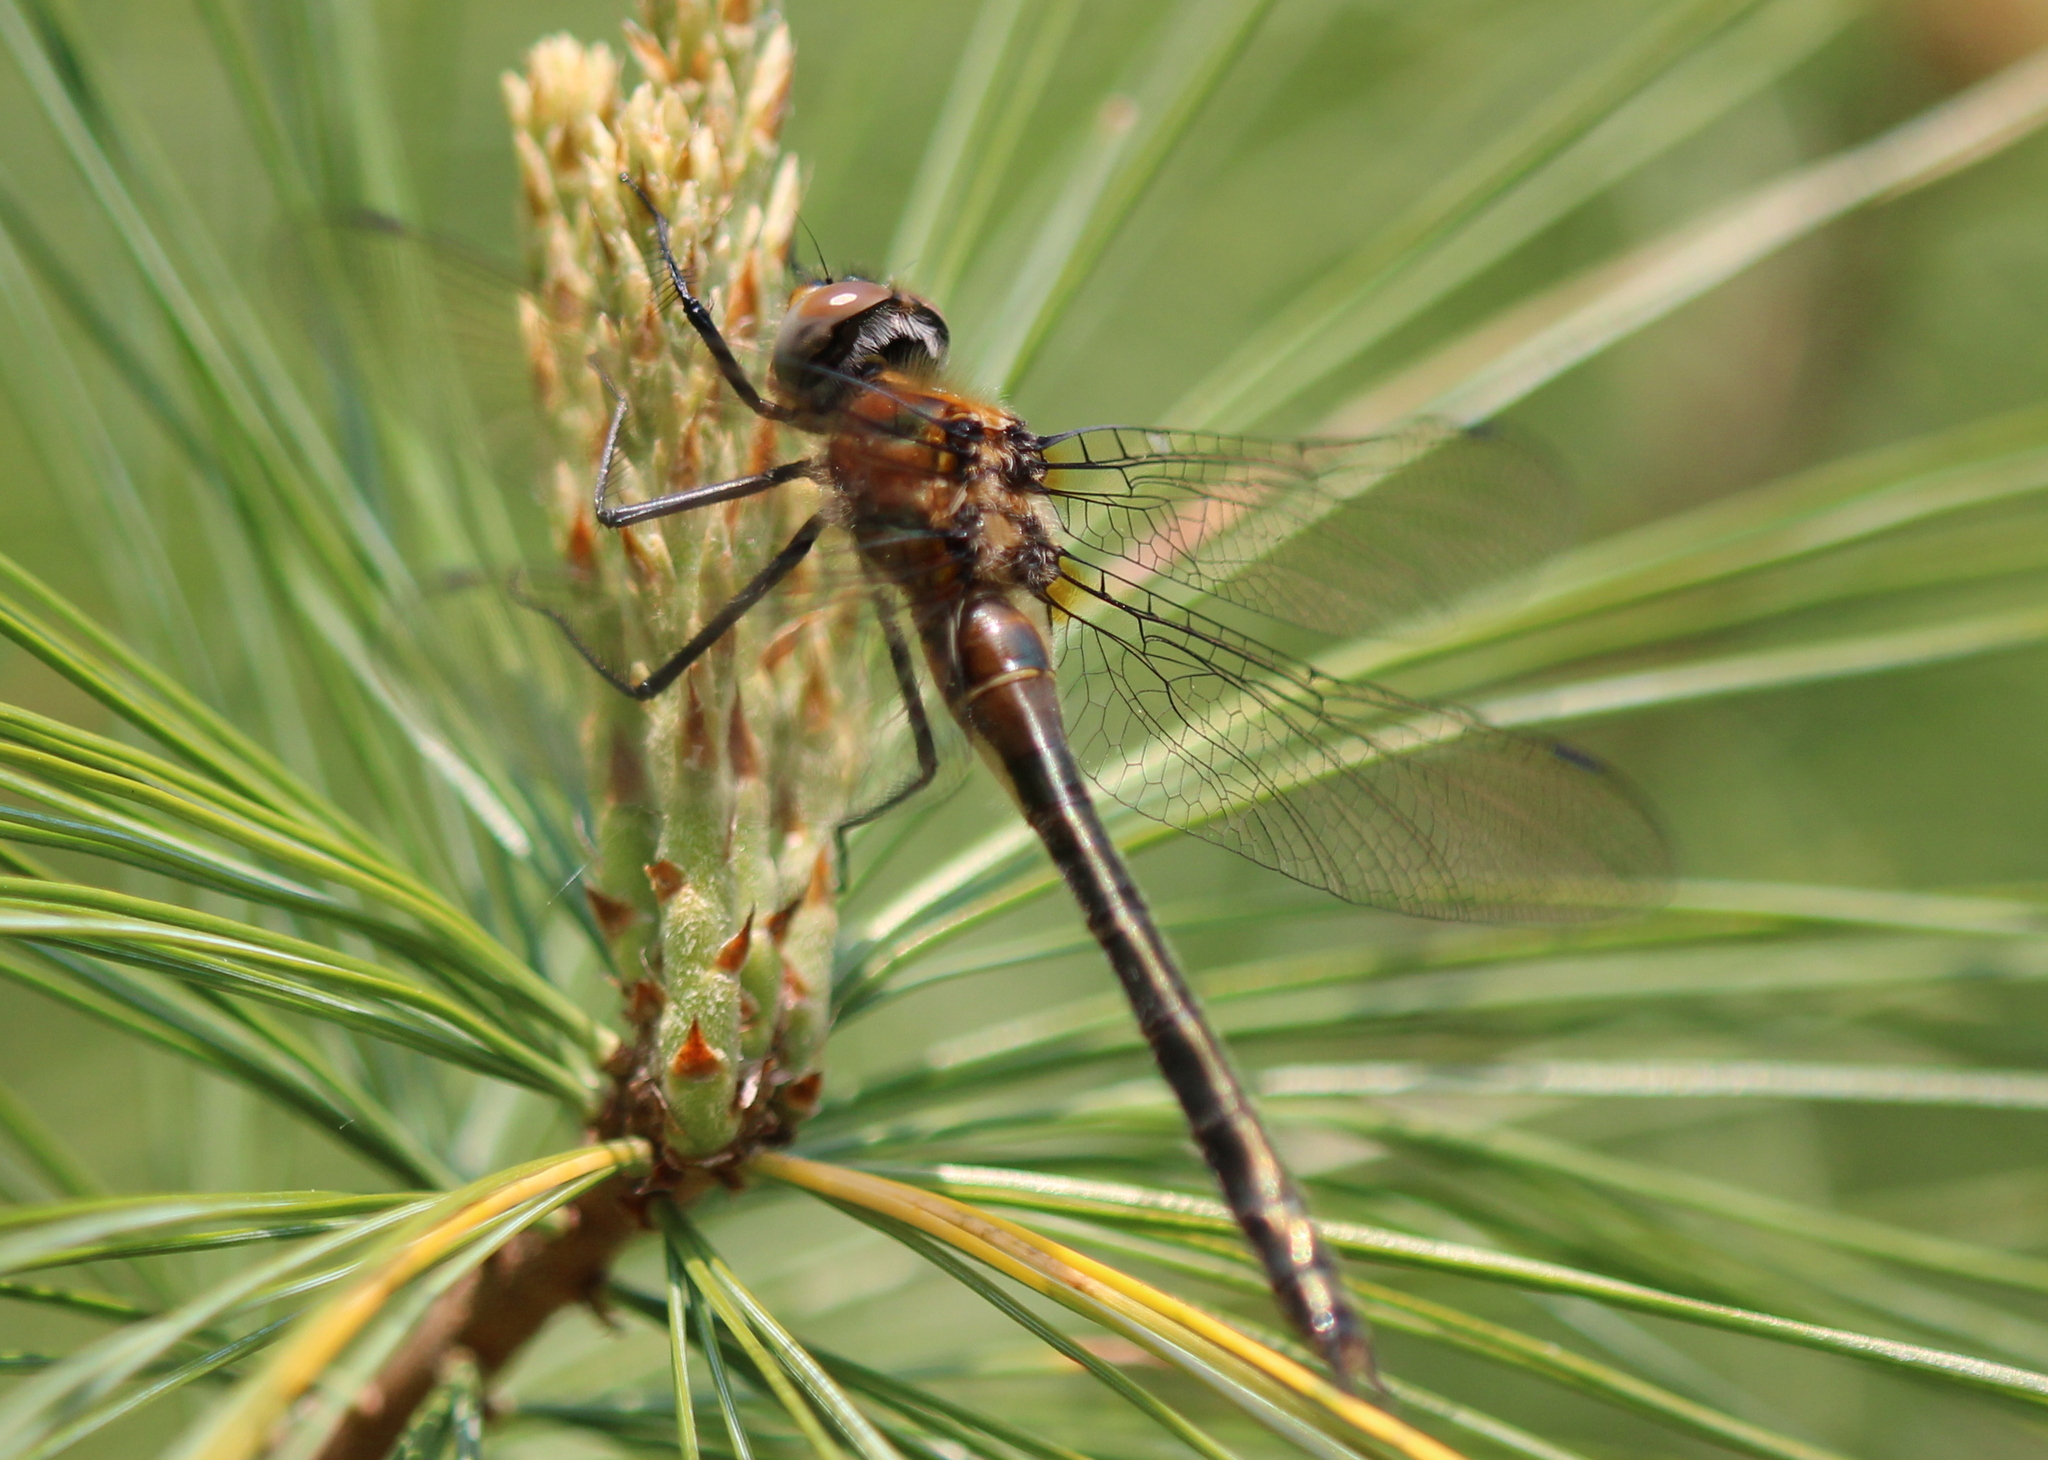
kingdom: Animalia
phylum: Arthropoda
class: Insecta
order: Odonata
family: Corduliidae
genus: Cordulia
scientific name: Cordulia shurtleffii
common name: American emerald
